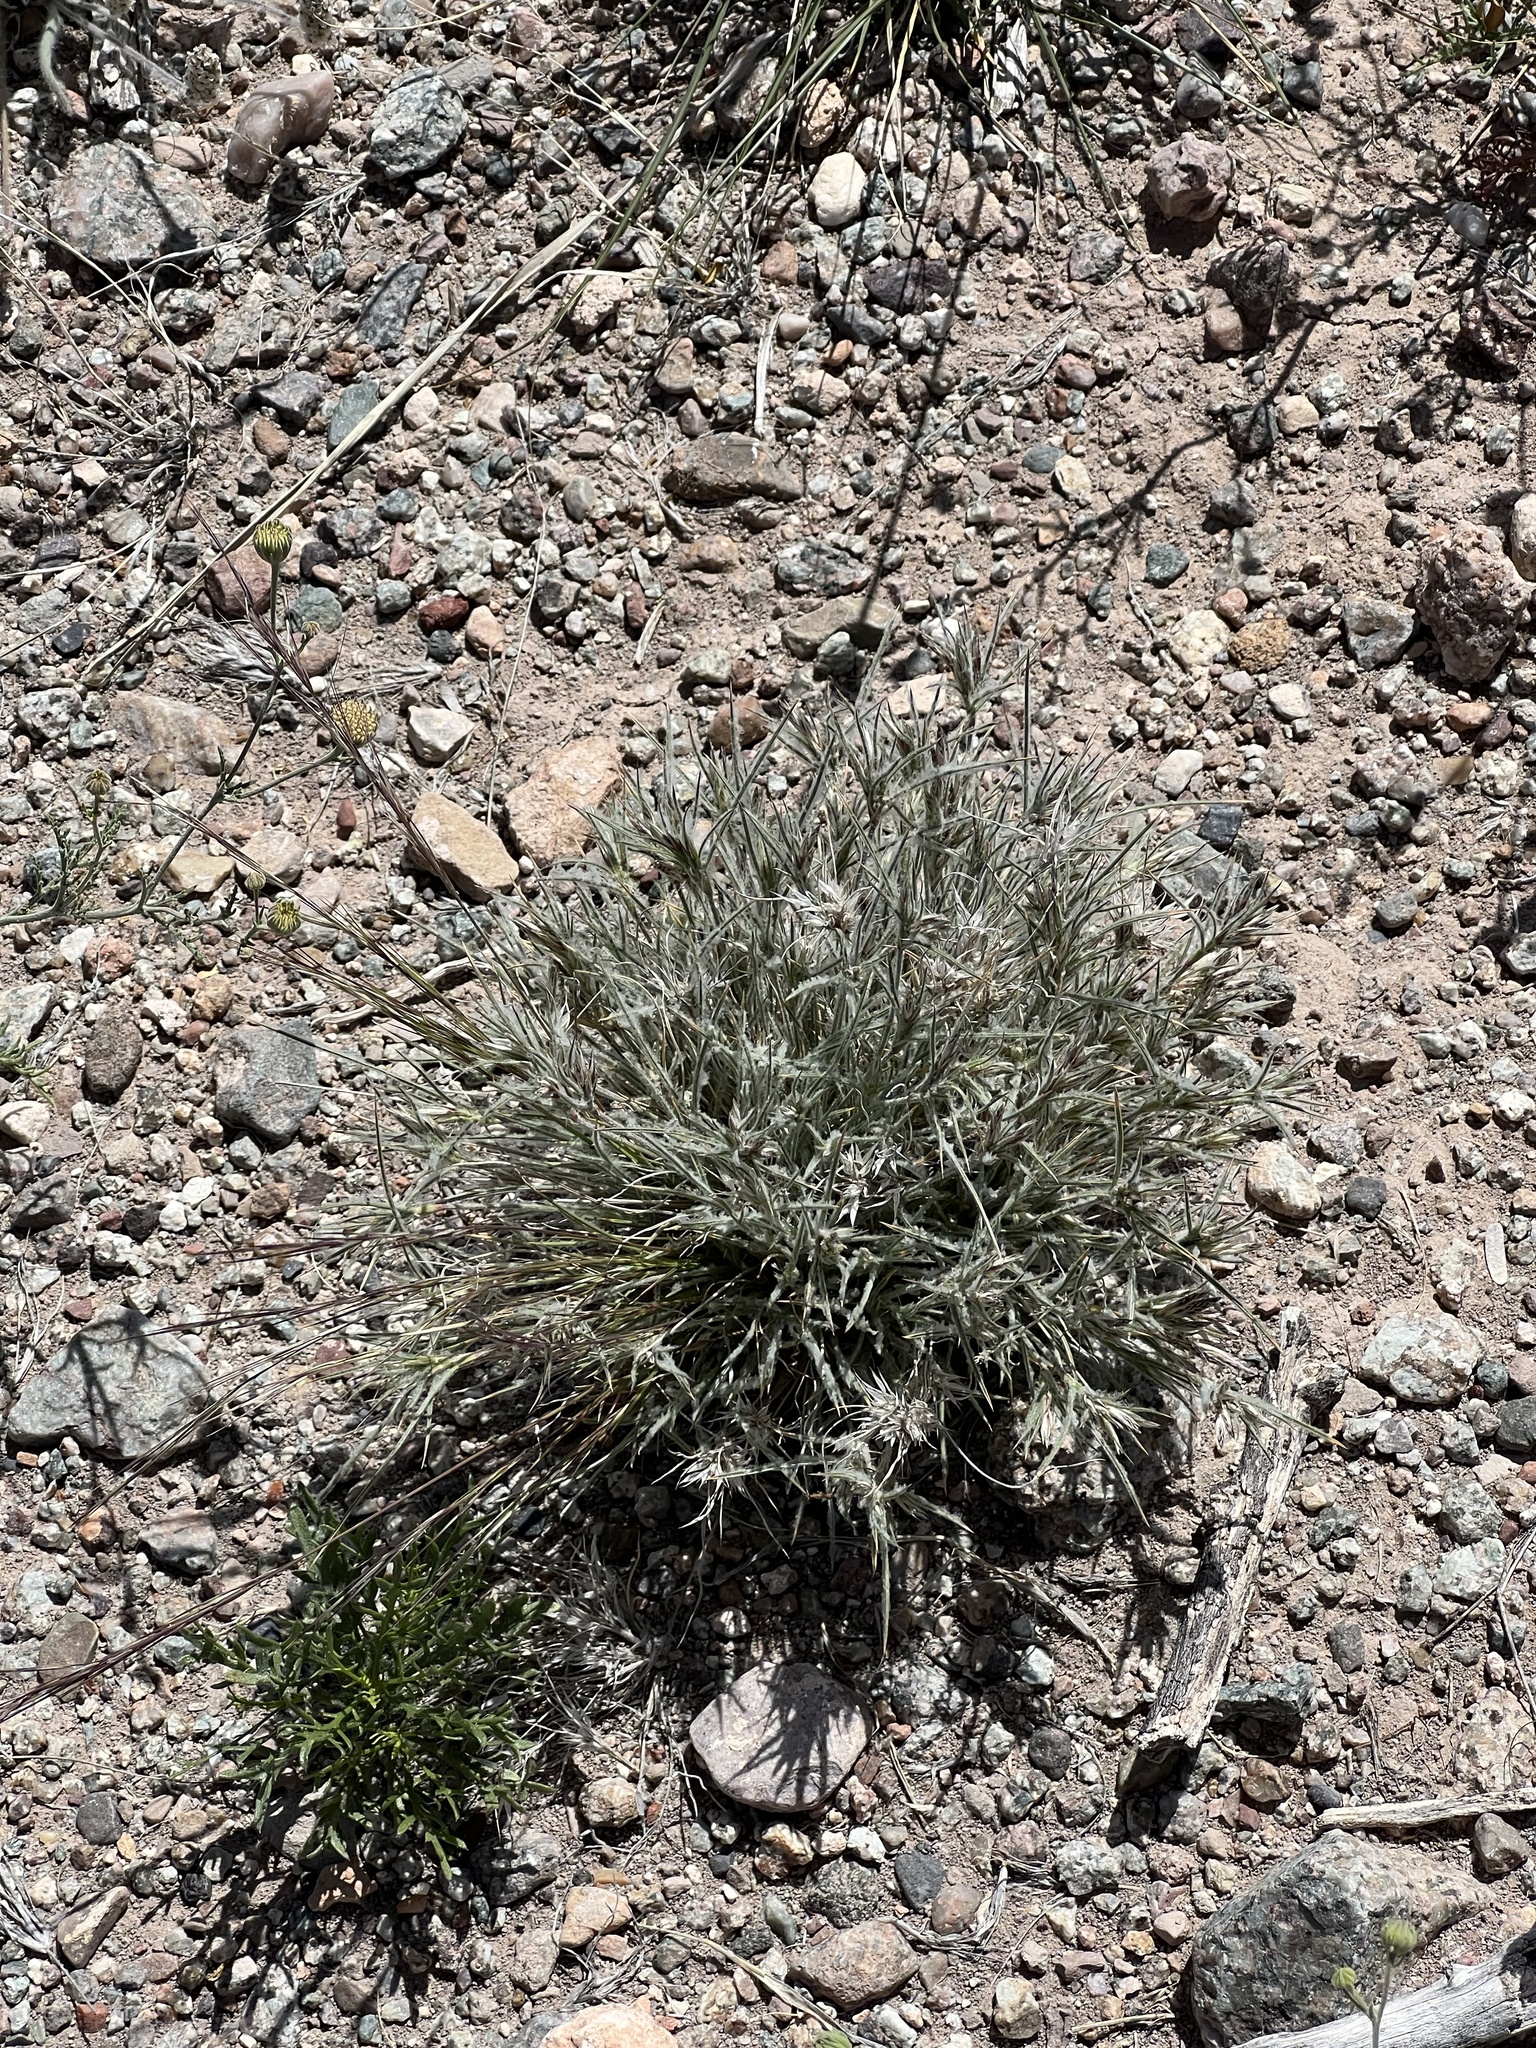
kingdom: Plantae
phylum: Tracheophyta
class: Liliopsida
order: Poales
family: Poaceae
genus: Dasyochloa
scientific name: Dasyochloa pulchella
